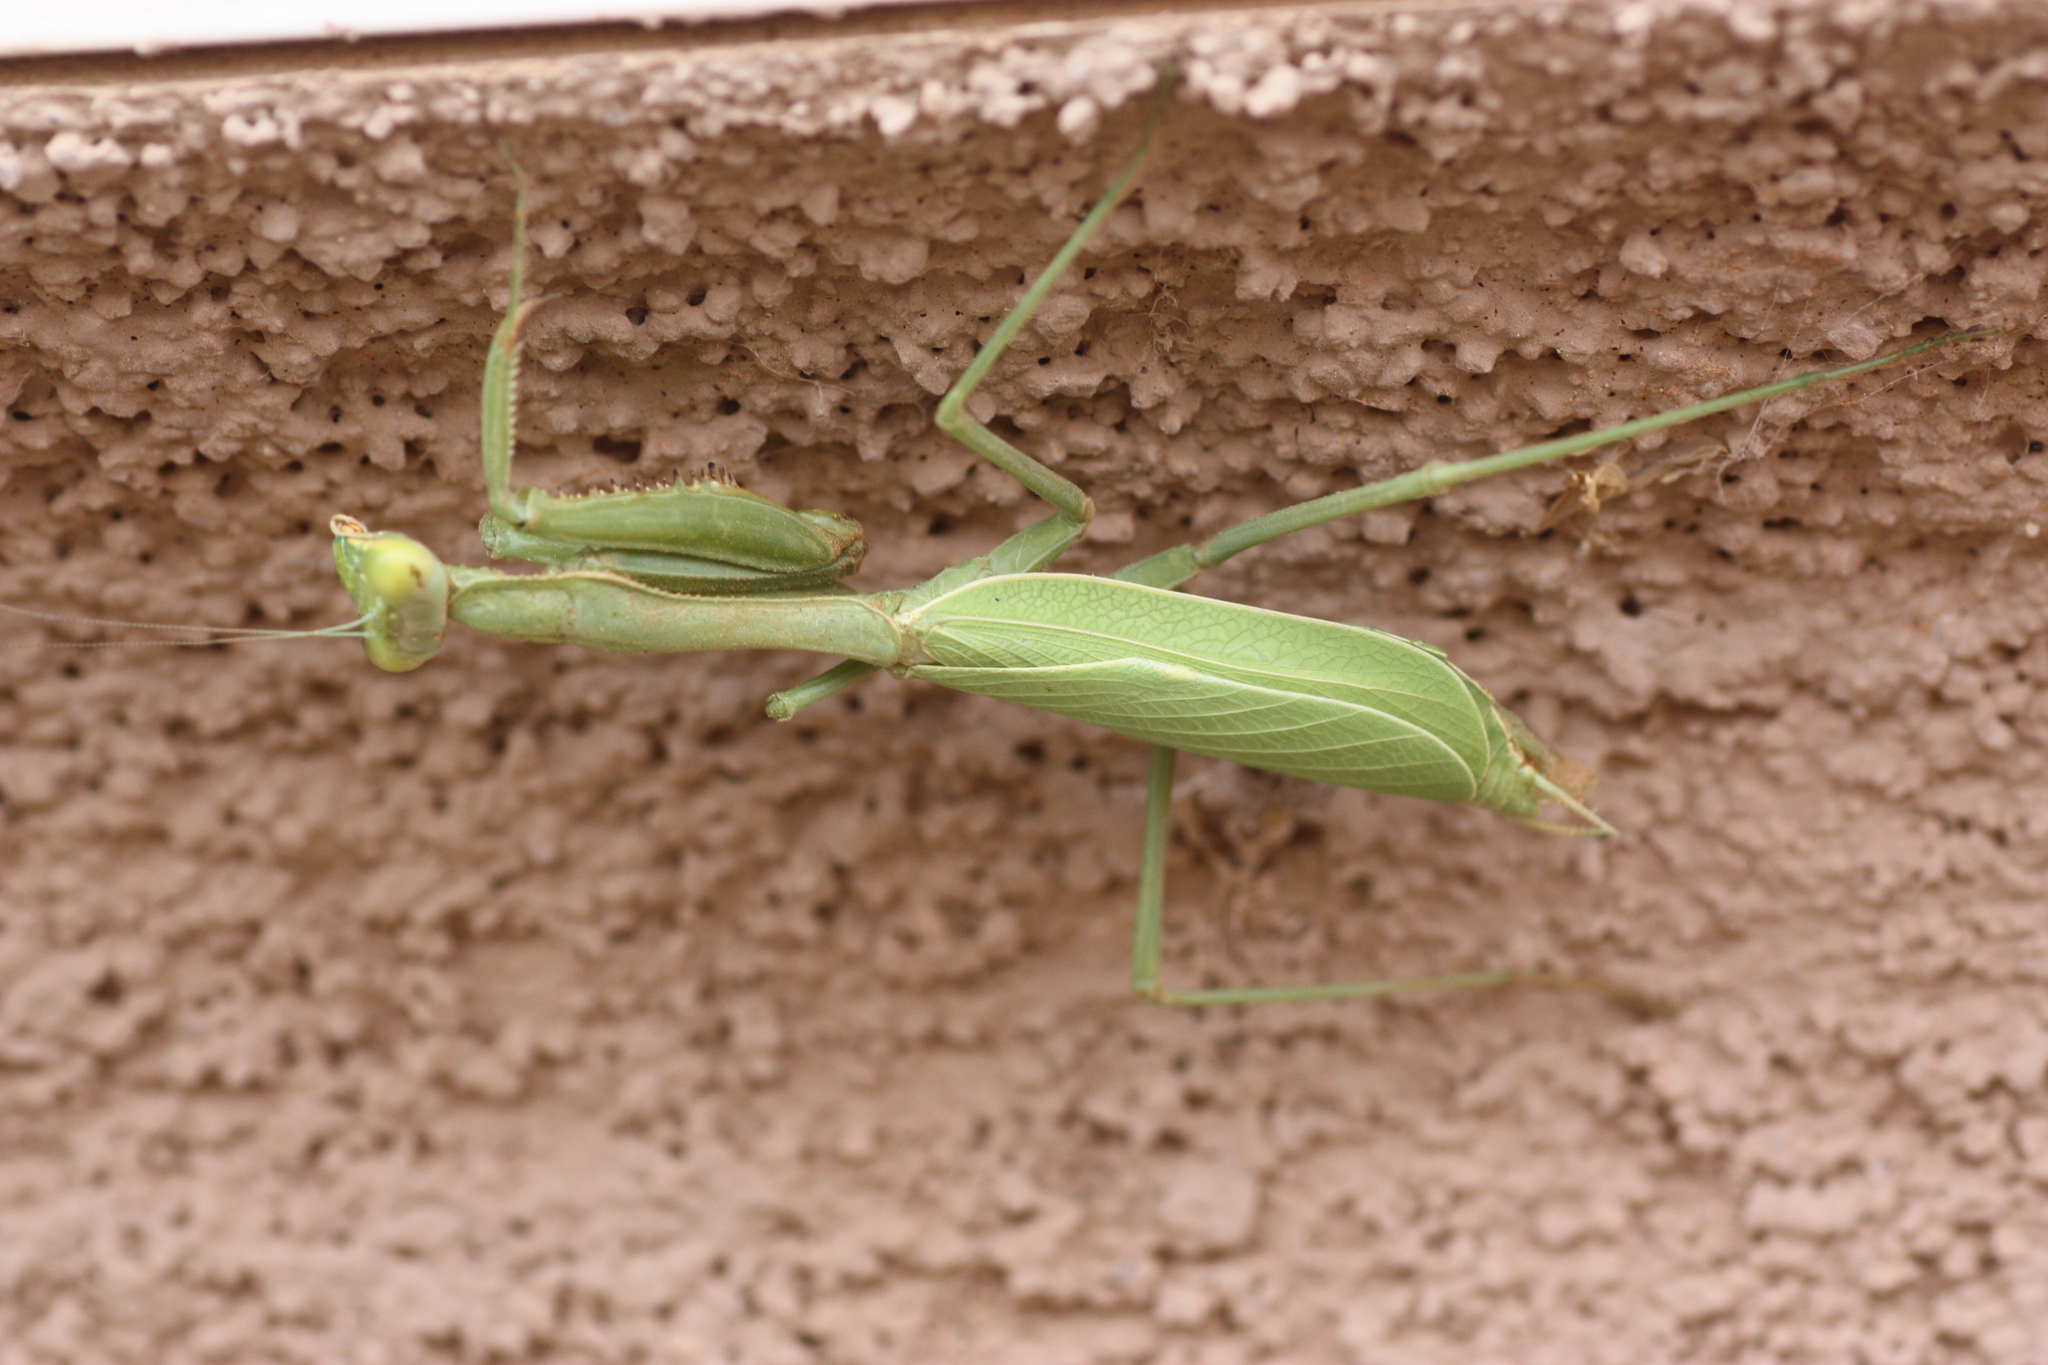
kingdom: Animalia
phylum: Arthropoda
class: Insecta
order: Mantodea
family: Mantidae
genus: Stagmomantis
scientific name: Stagmomantis limbata
